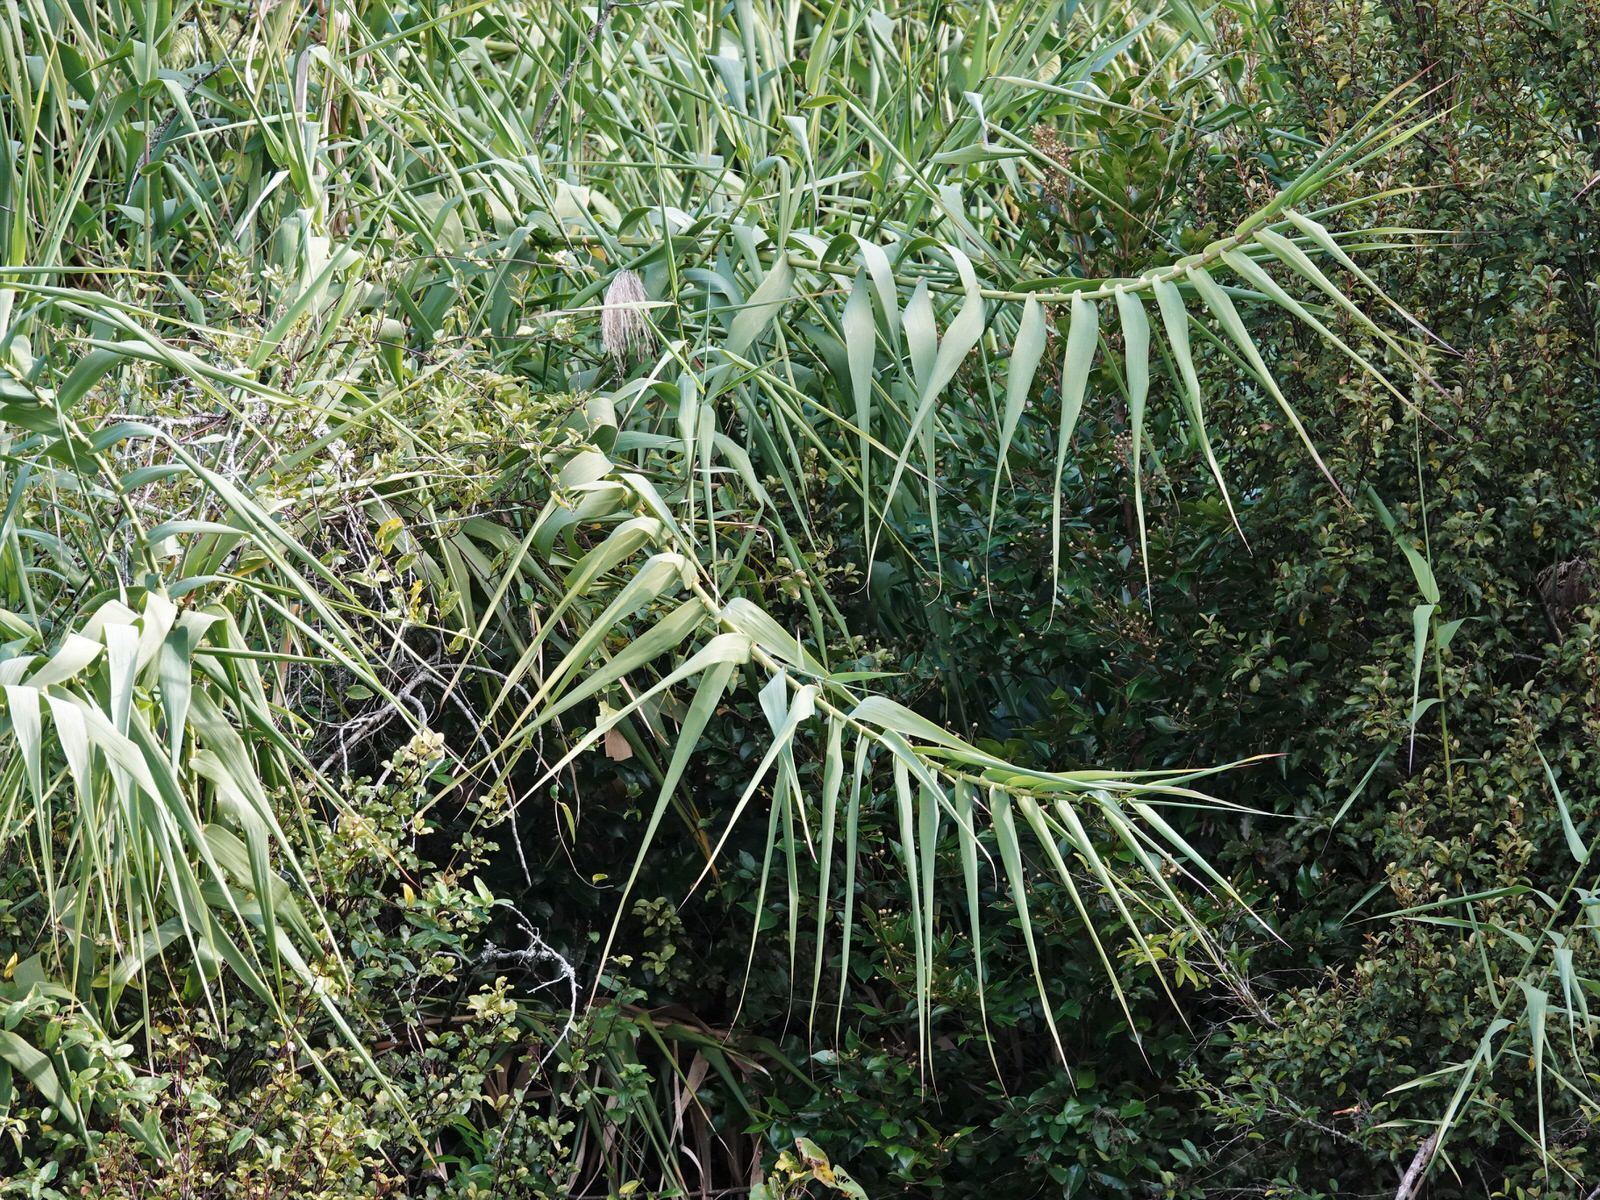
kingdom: Plantae
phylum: Tracheophyta
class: Liliopsida
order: Poales
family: Poaceae
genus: Arundo
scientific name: Arundo donax
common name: Giant reed
